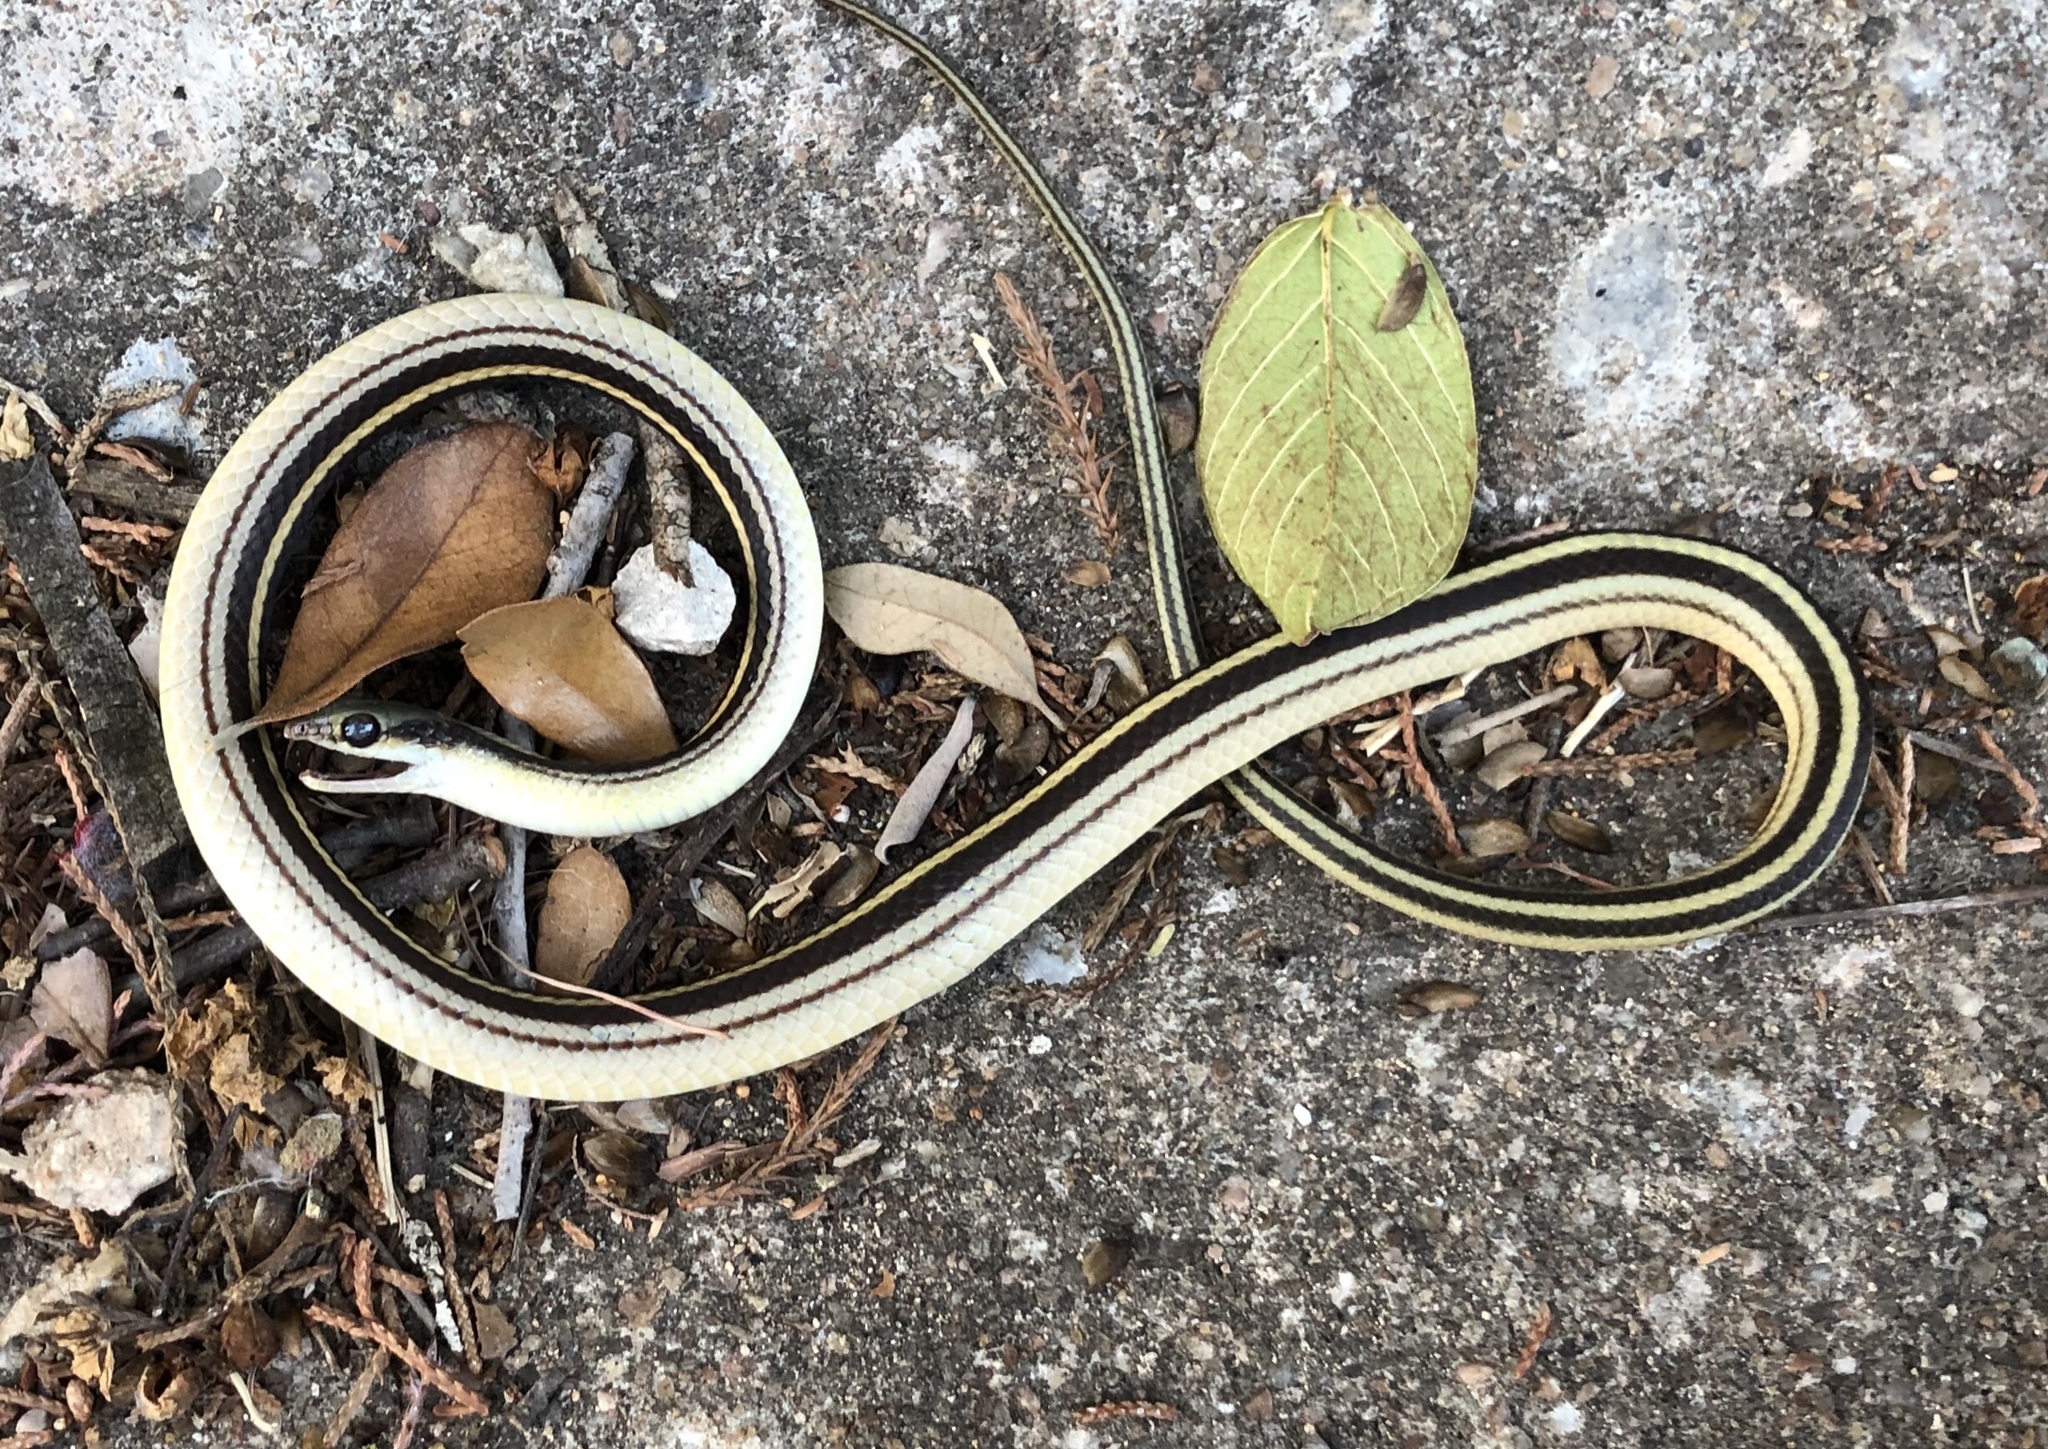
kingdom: Animalia
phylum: Chordata
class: Squamata
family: Colubridae
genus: Salvadora
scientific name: Salvadora lineata
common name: Texas patchnose snake
